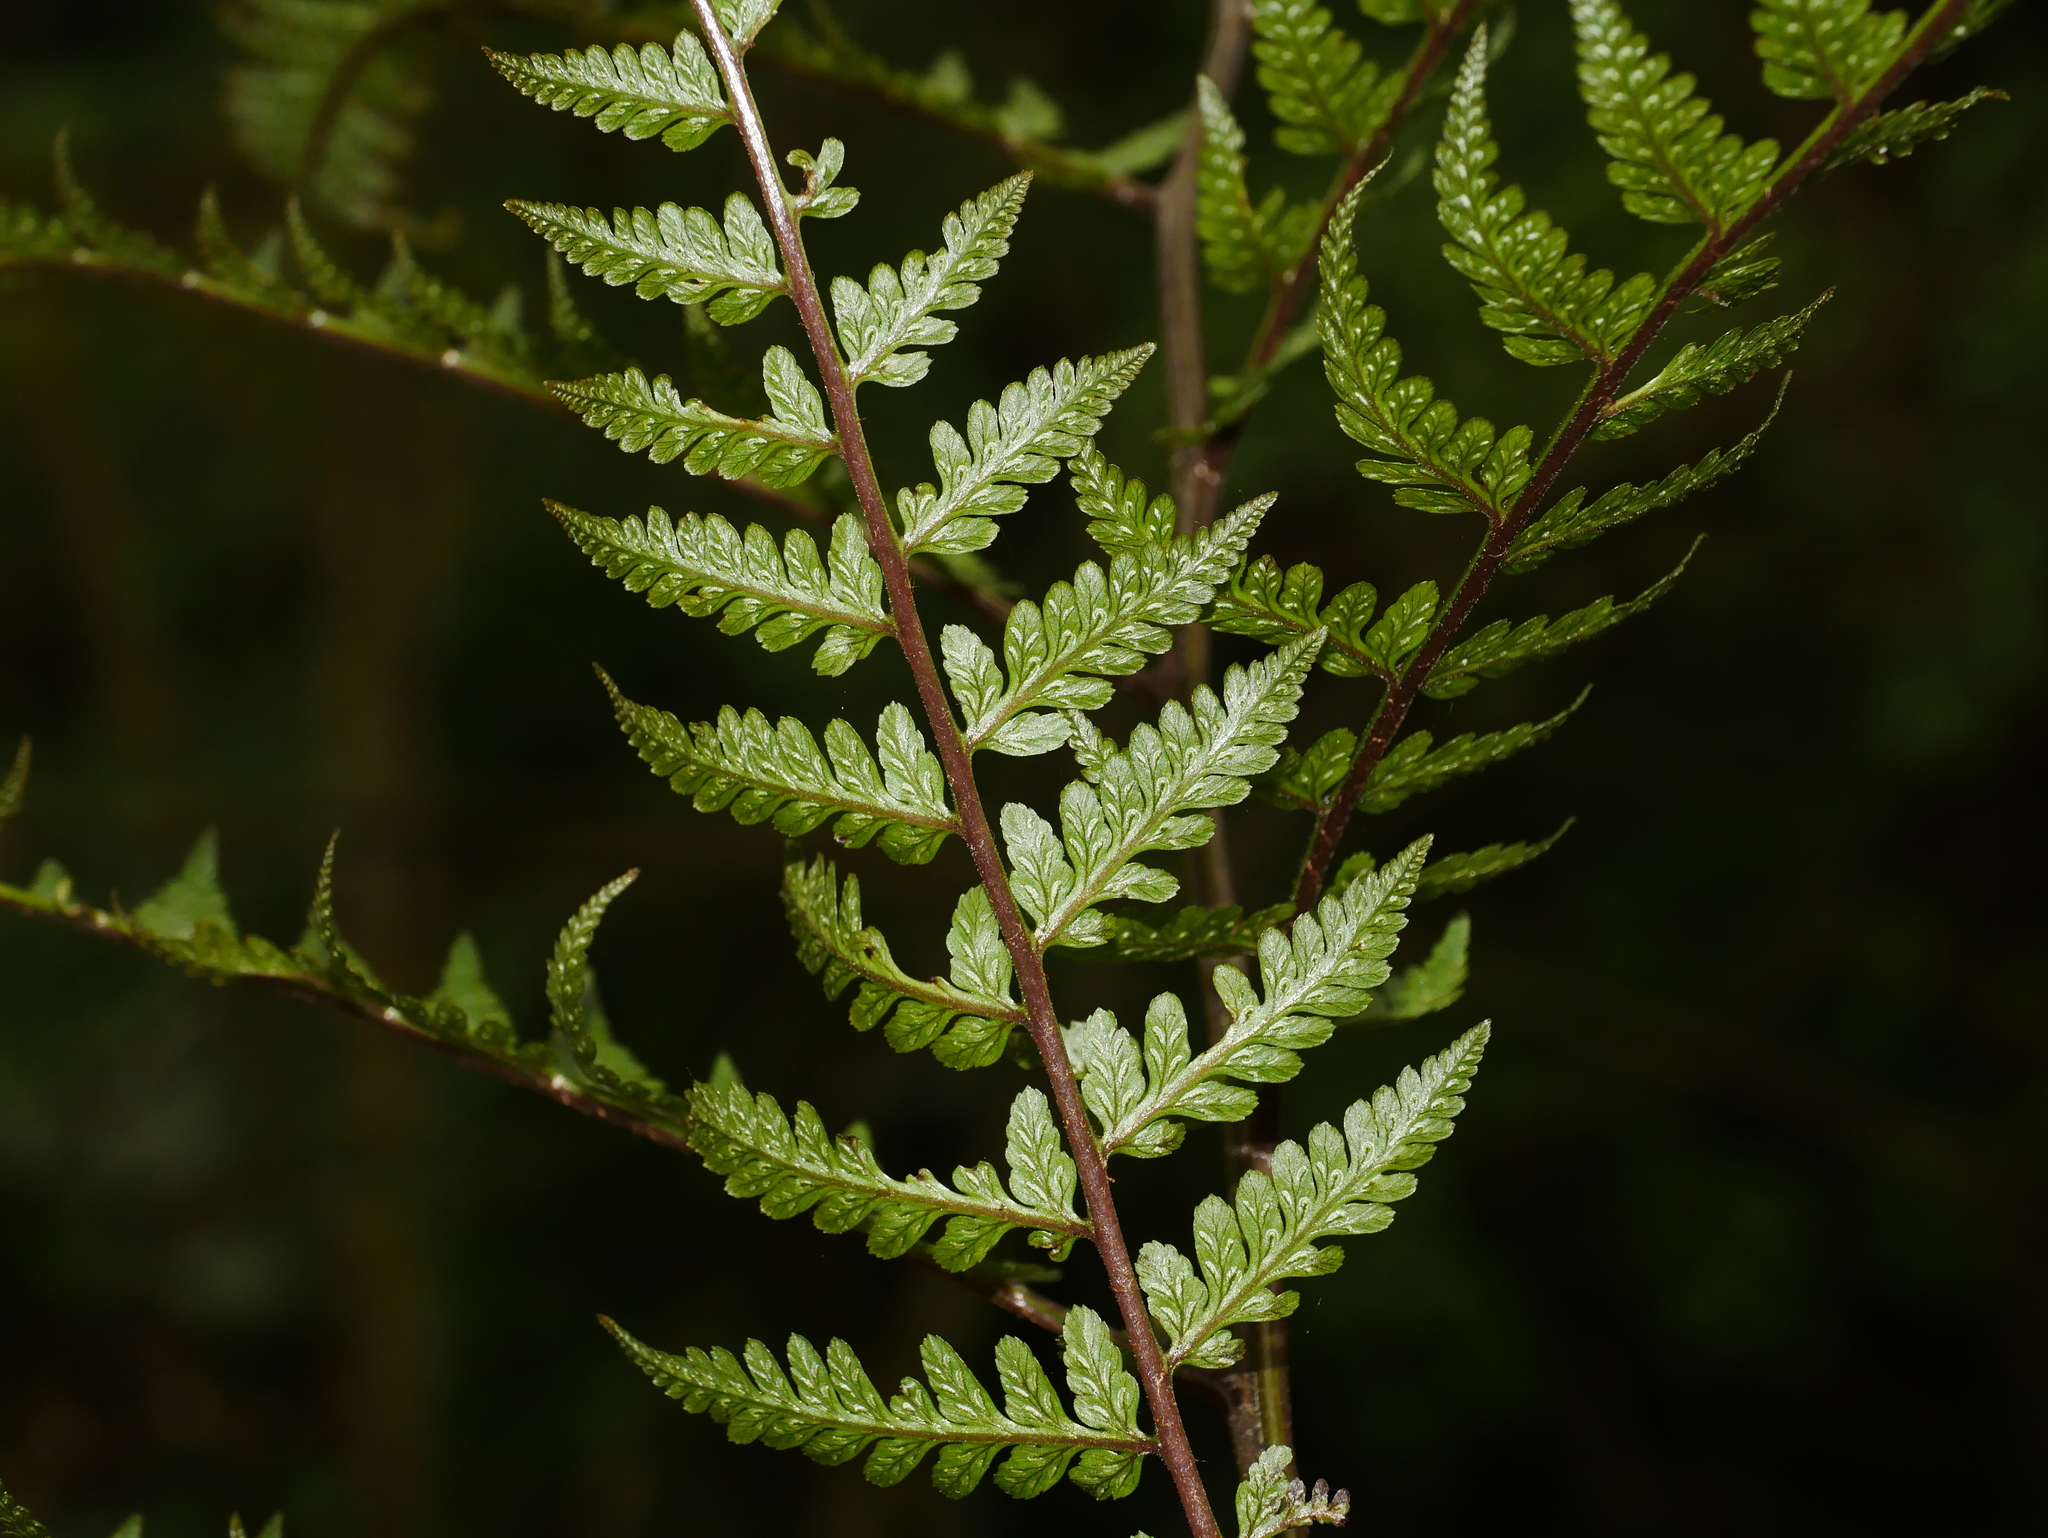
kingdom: Plantae
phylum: Tracheophyta
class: Polypodiopsida
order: Polypodiales
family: Athyriaceae
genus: Athyrium
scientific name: Athyrium vidalii
